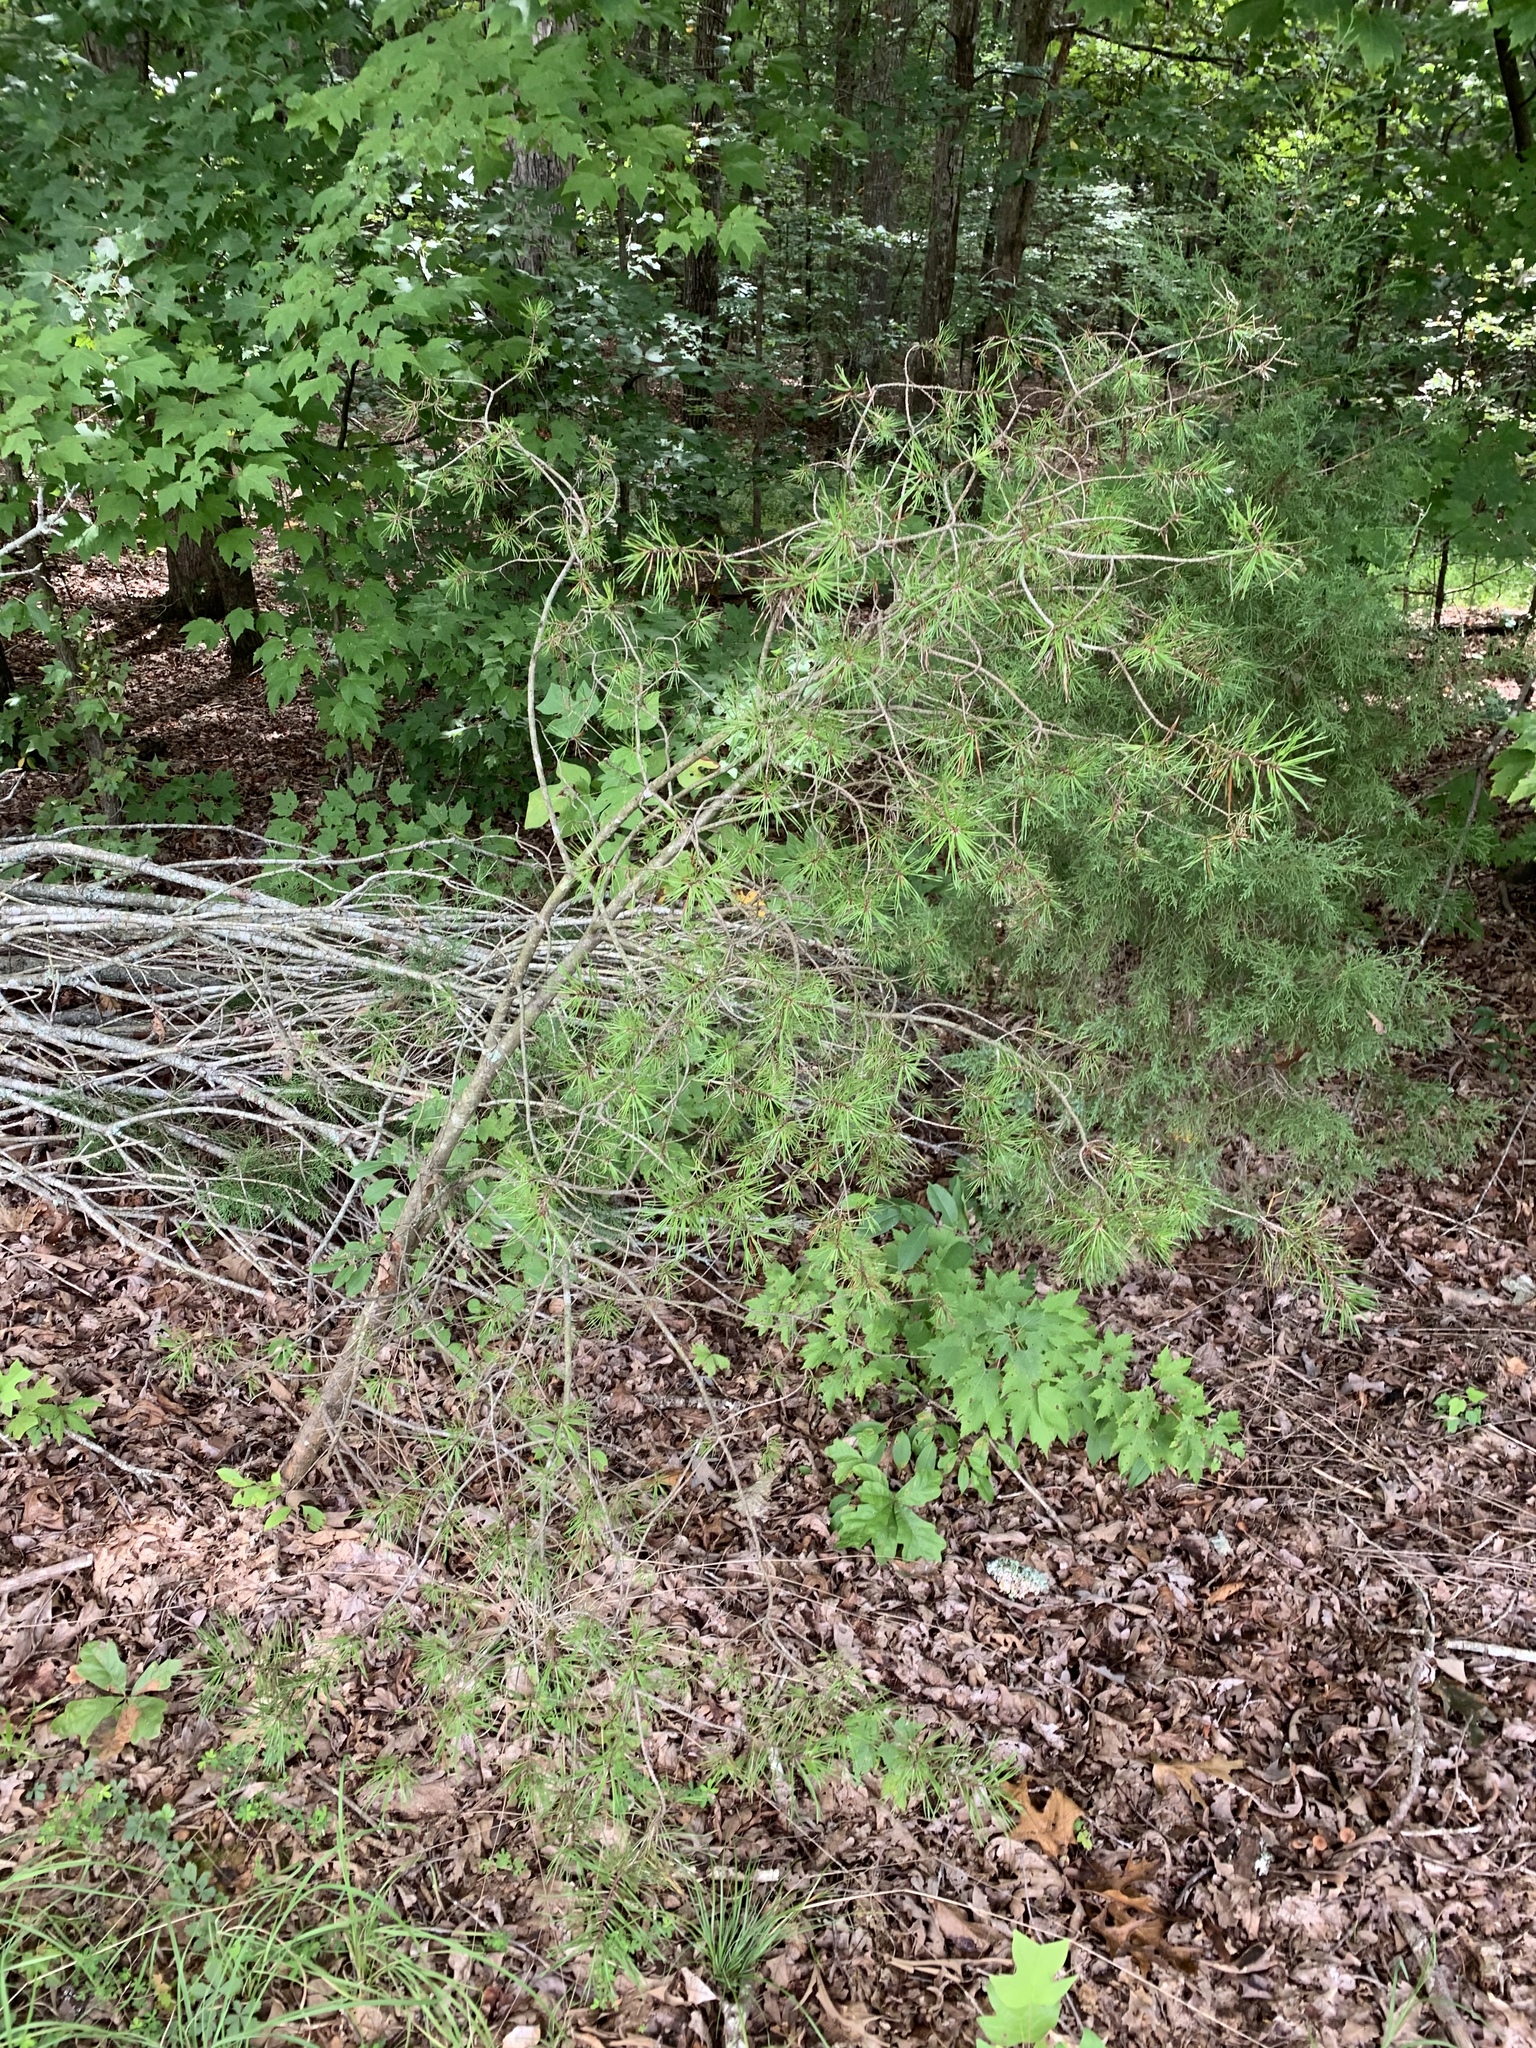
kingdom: Plantae
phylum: Tracheophyta
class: Pinopsida
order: Pinales
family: Pinaceae
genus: Pinus
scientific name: Pinus virginiana
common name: Scrub pine
